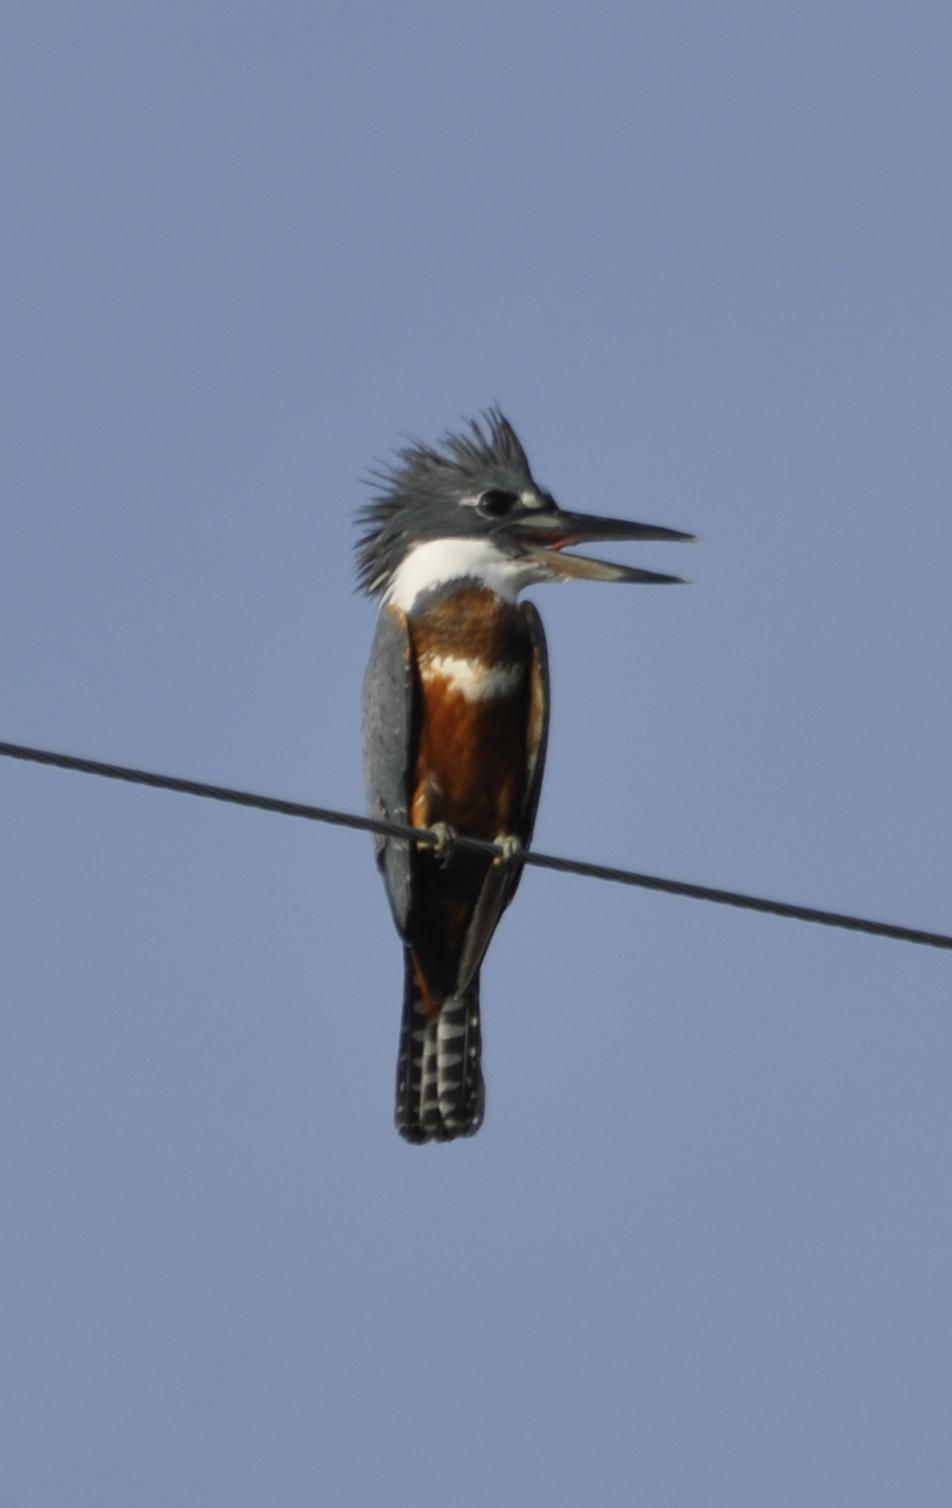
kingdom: Animalia
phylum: Chordata
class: Aves
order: Coraciiformes
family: Alcedinidae
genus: Megaceryle
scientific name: Megaceryle torquata
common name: Ringed kingfisher
